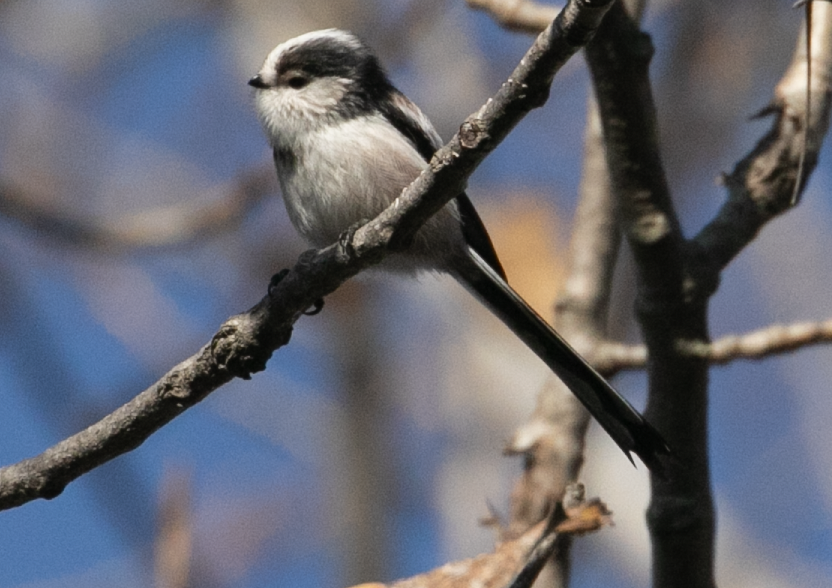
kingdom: Animalia
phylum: Chordata
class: Aves
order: Passeriformes
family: Aegithalidae
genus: Aegithalos
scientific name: Aegithalos caudatus
